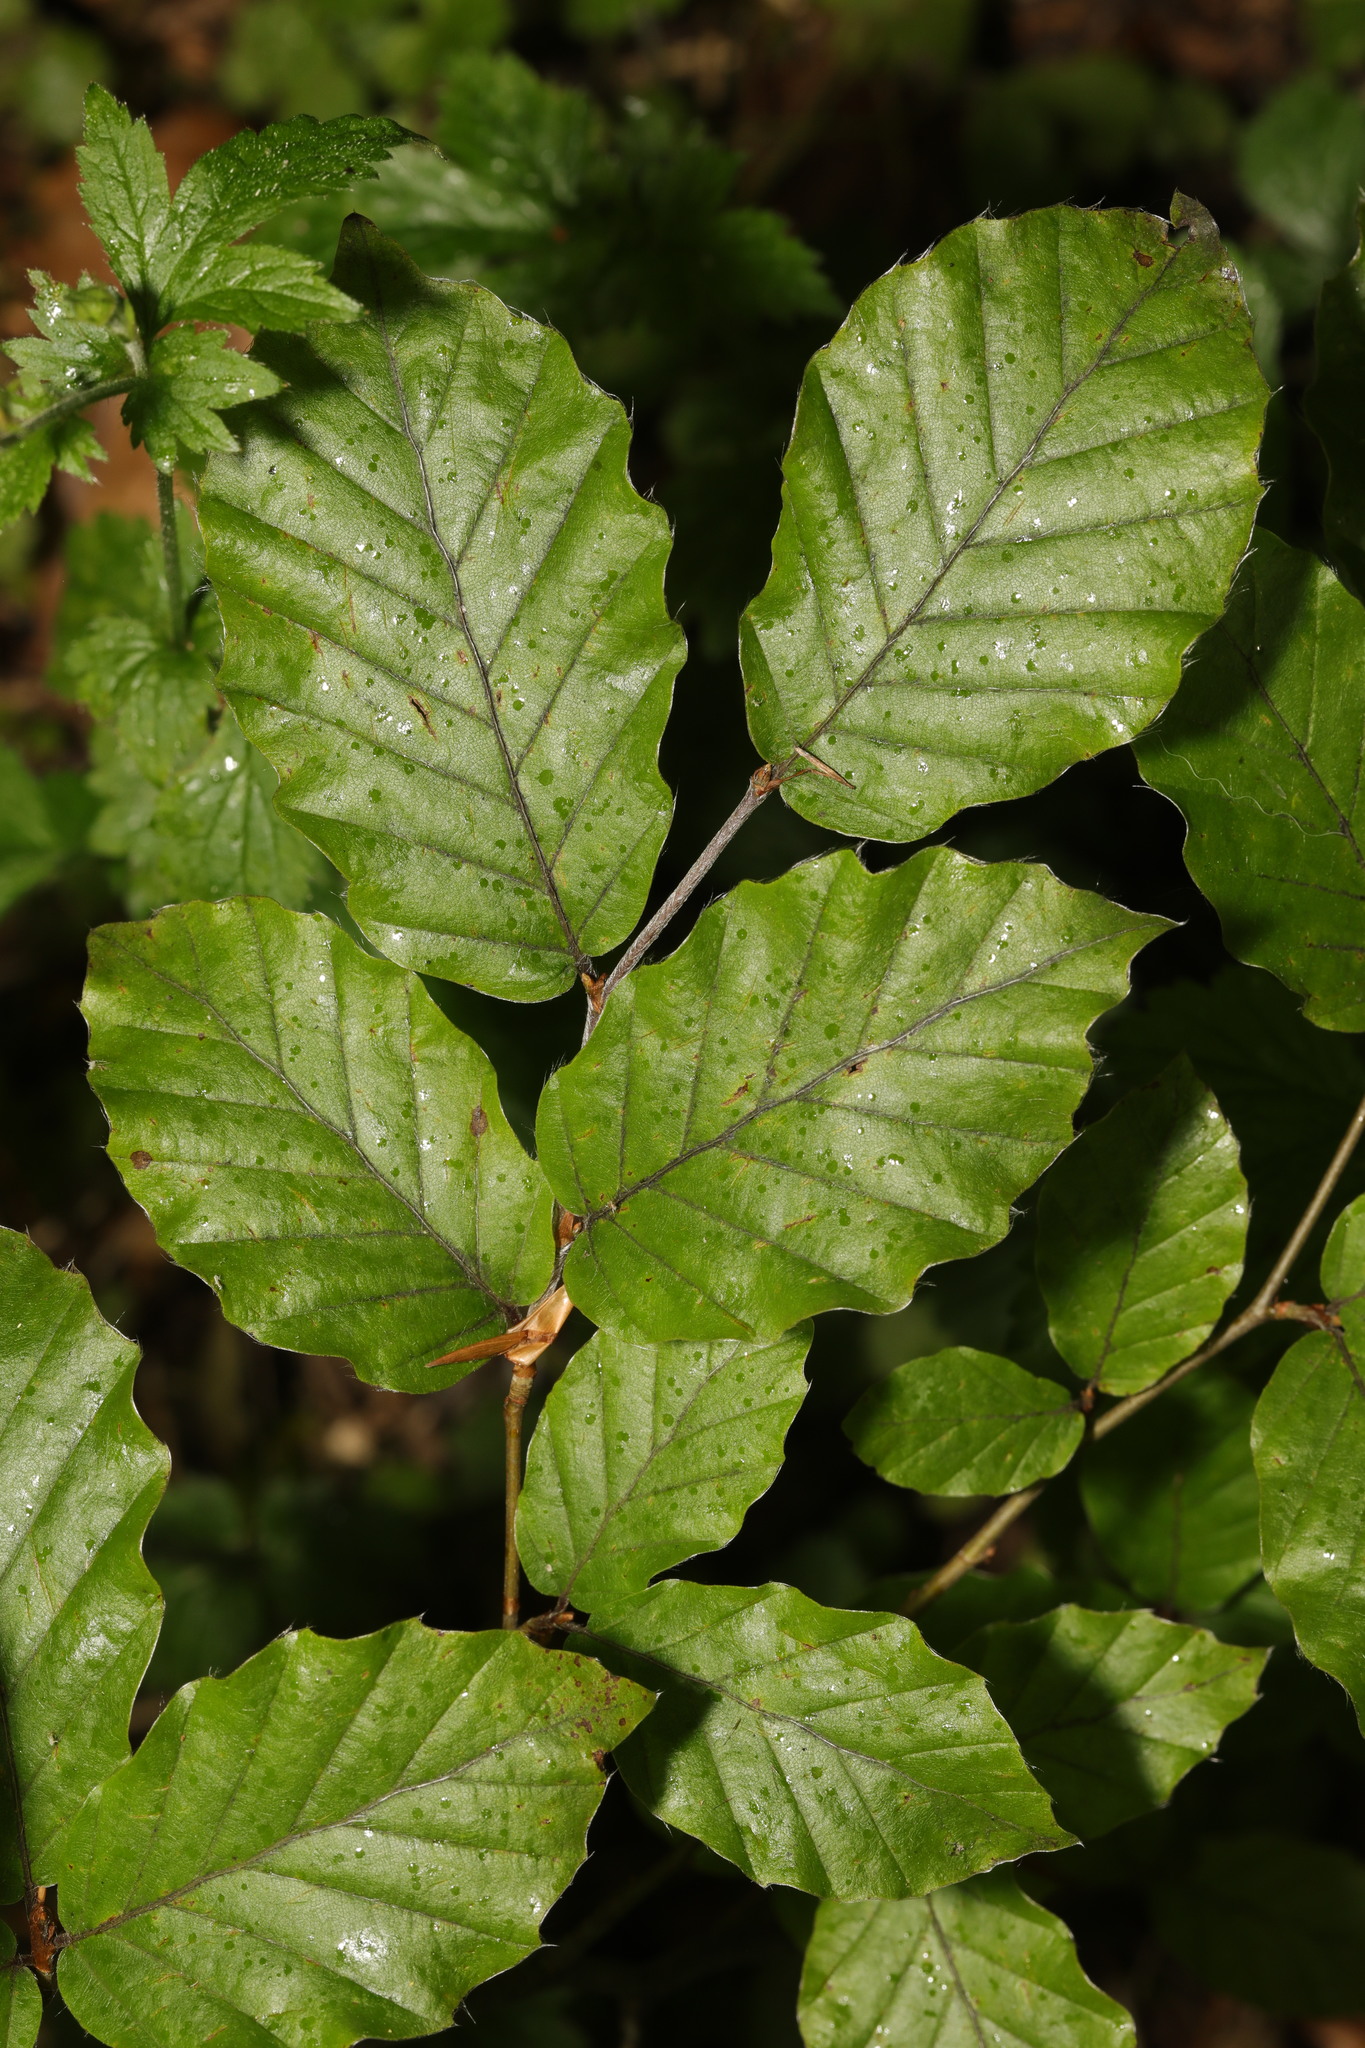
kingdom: Plantae
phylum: Tracheophyta
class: Magnoliopsida
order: Fagales
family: Fagaceae
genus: Fagus
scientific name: Fagus sylvatica
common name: Beech
